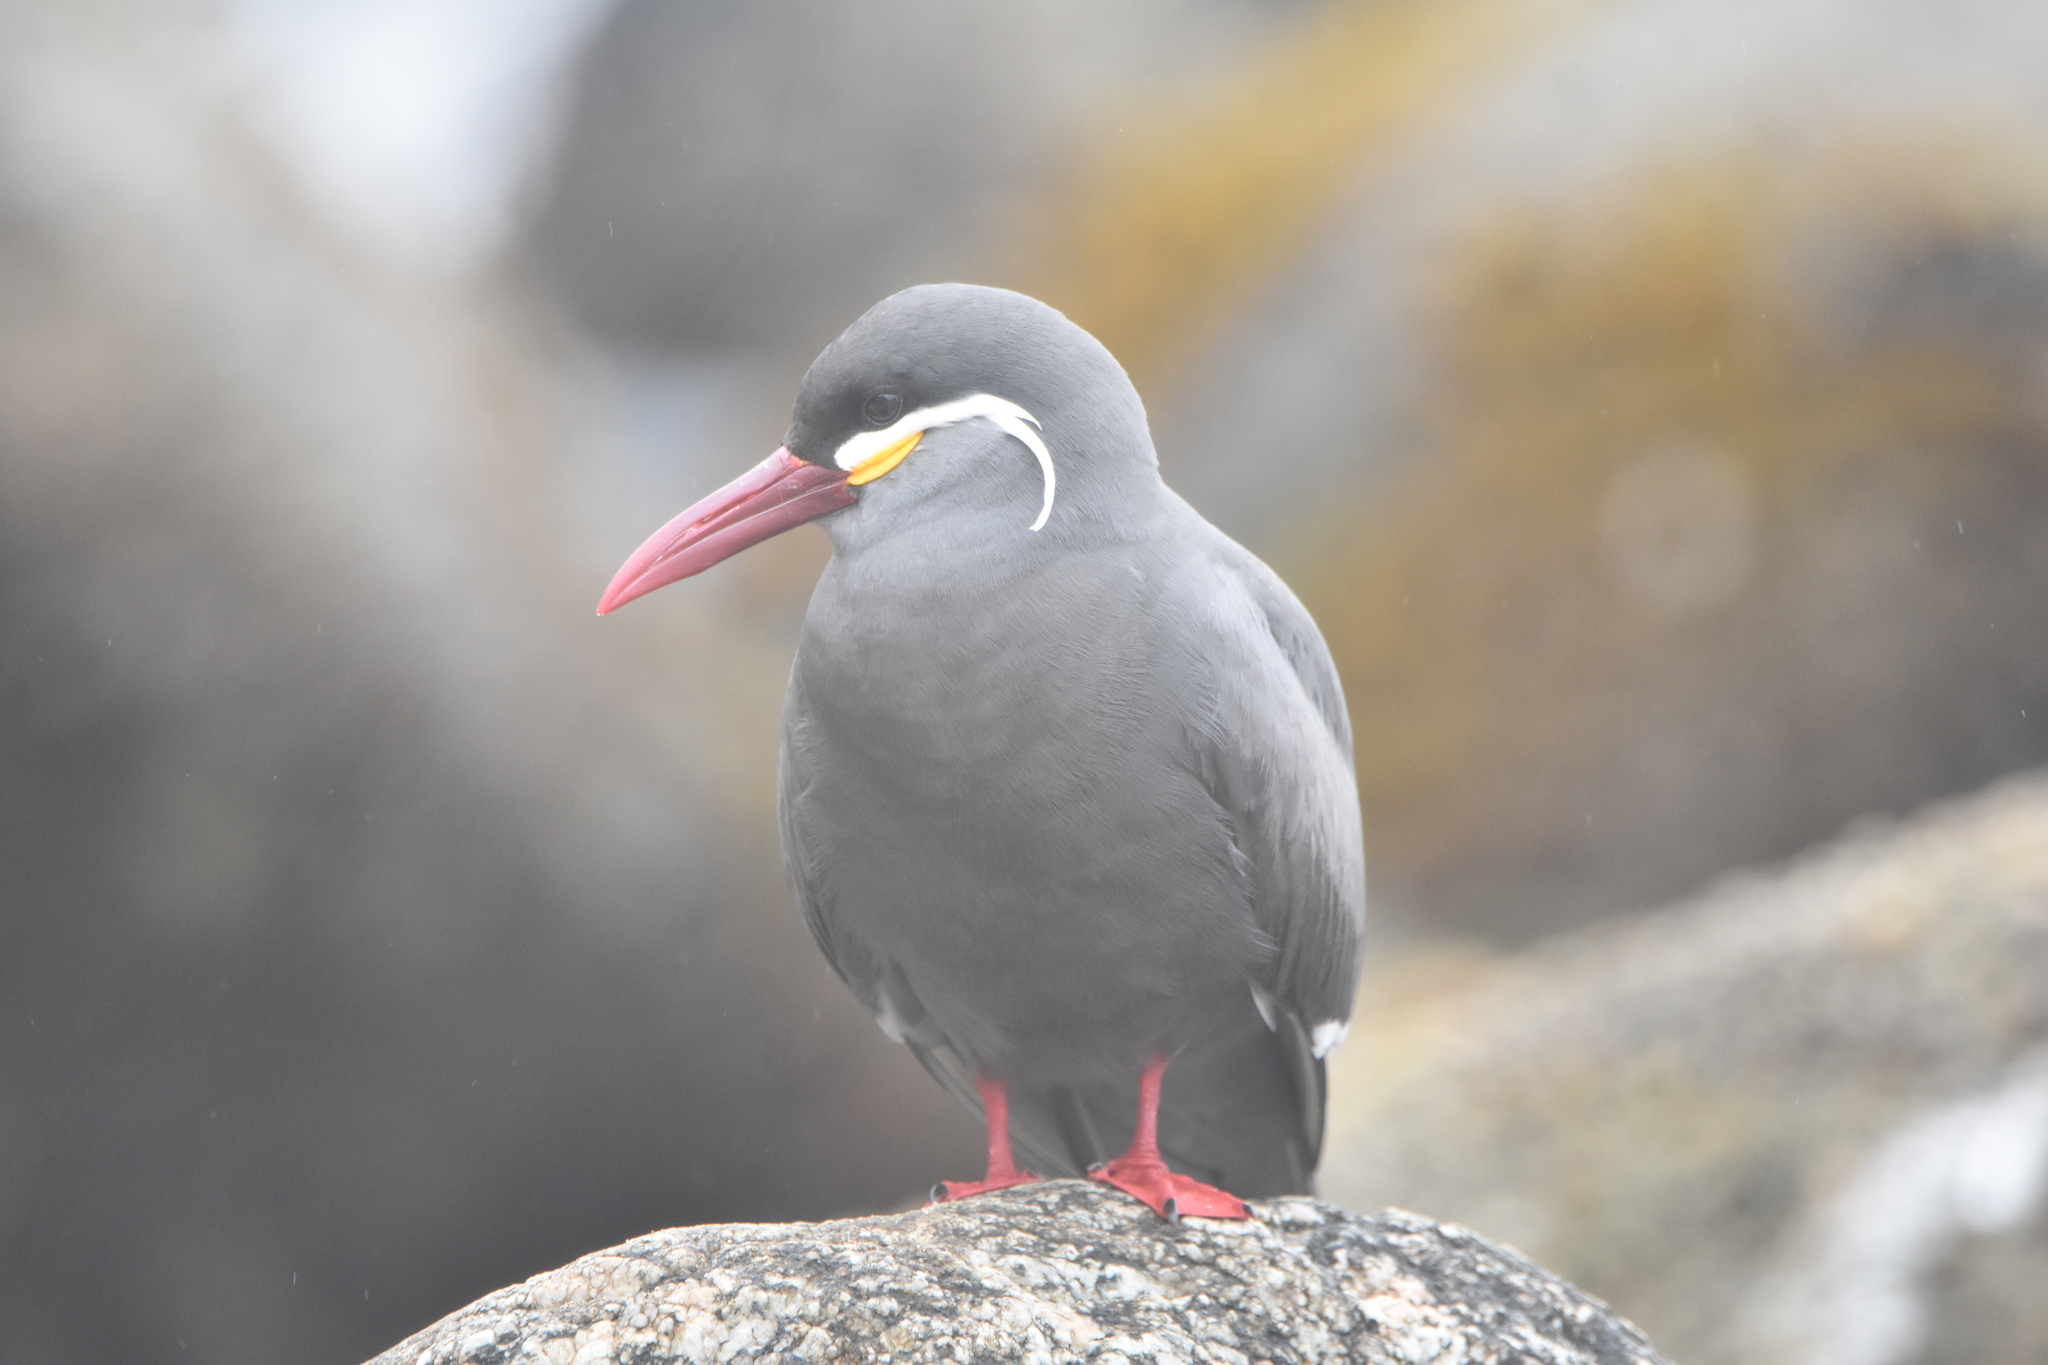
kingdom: Animalia
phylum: Chordata
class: Aves
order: Charadriiformes
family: Laridae
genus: Larosterna
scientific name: Larosterna inca
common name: Inca tern
